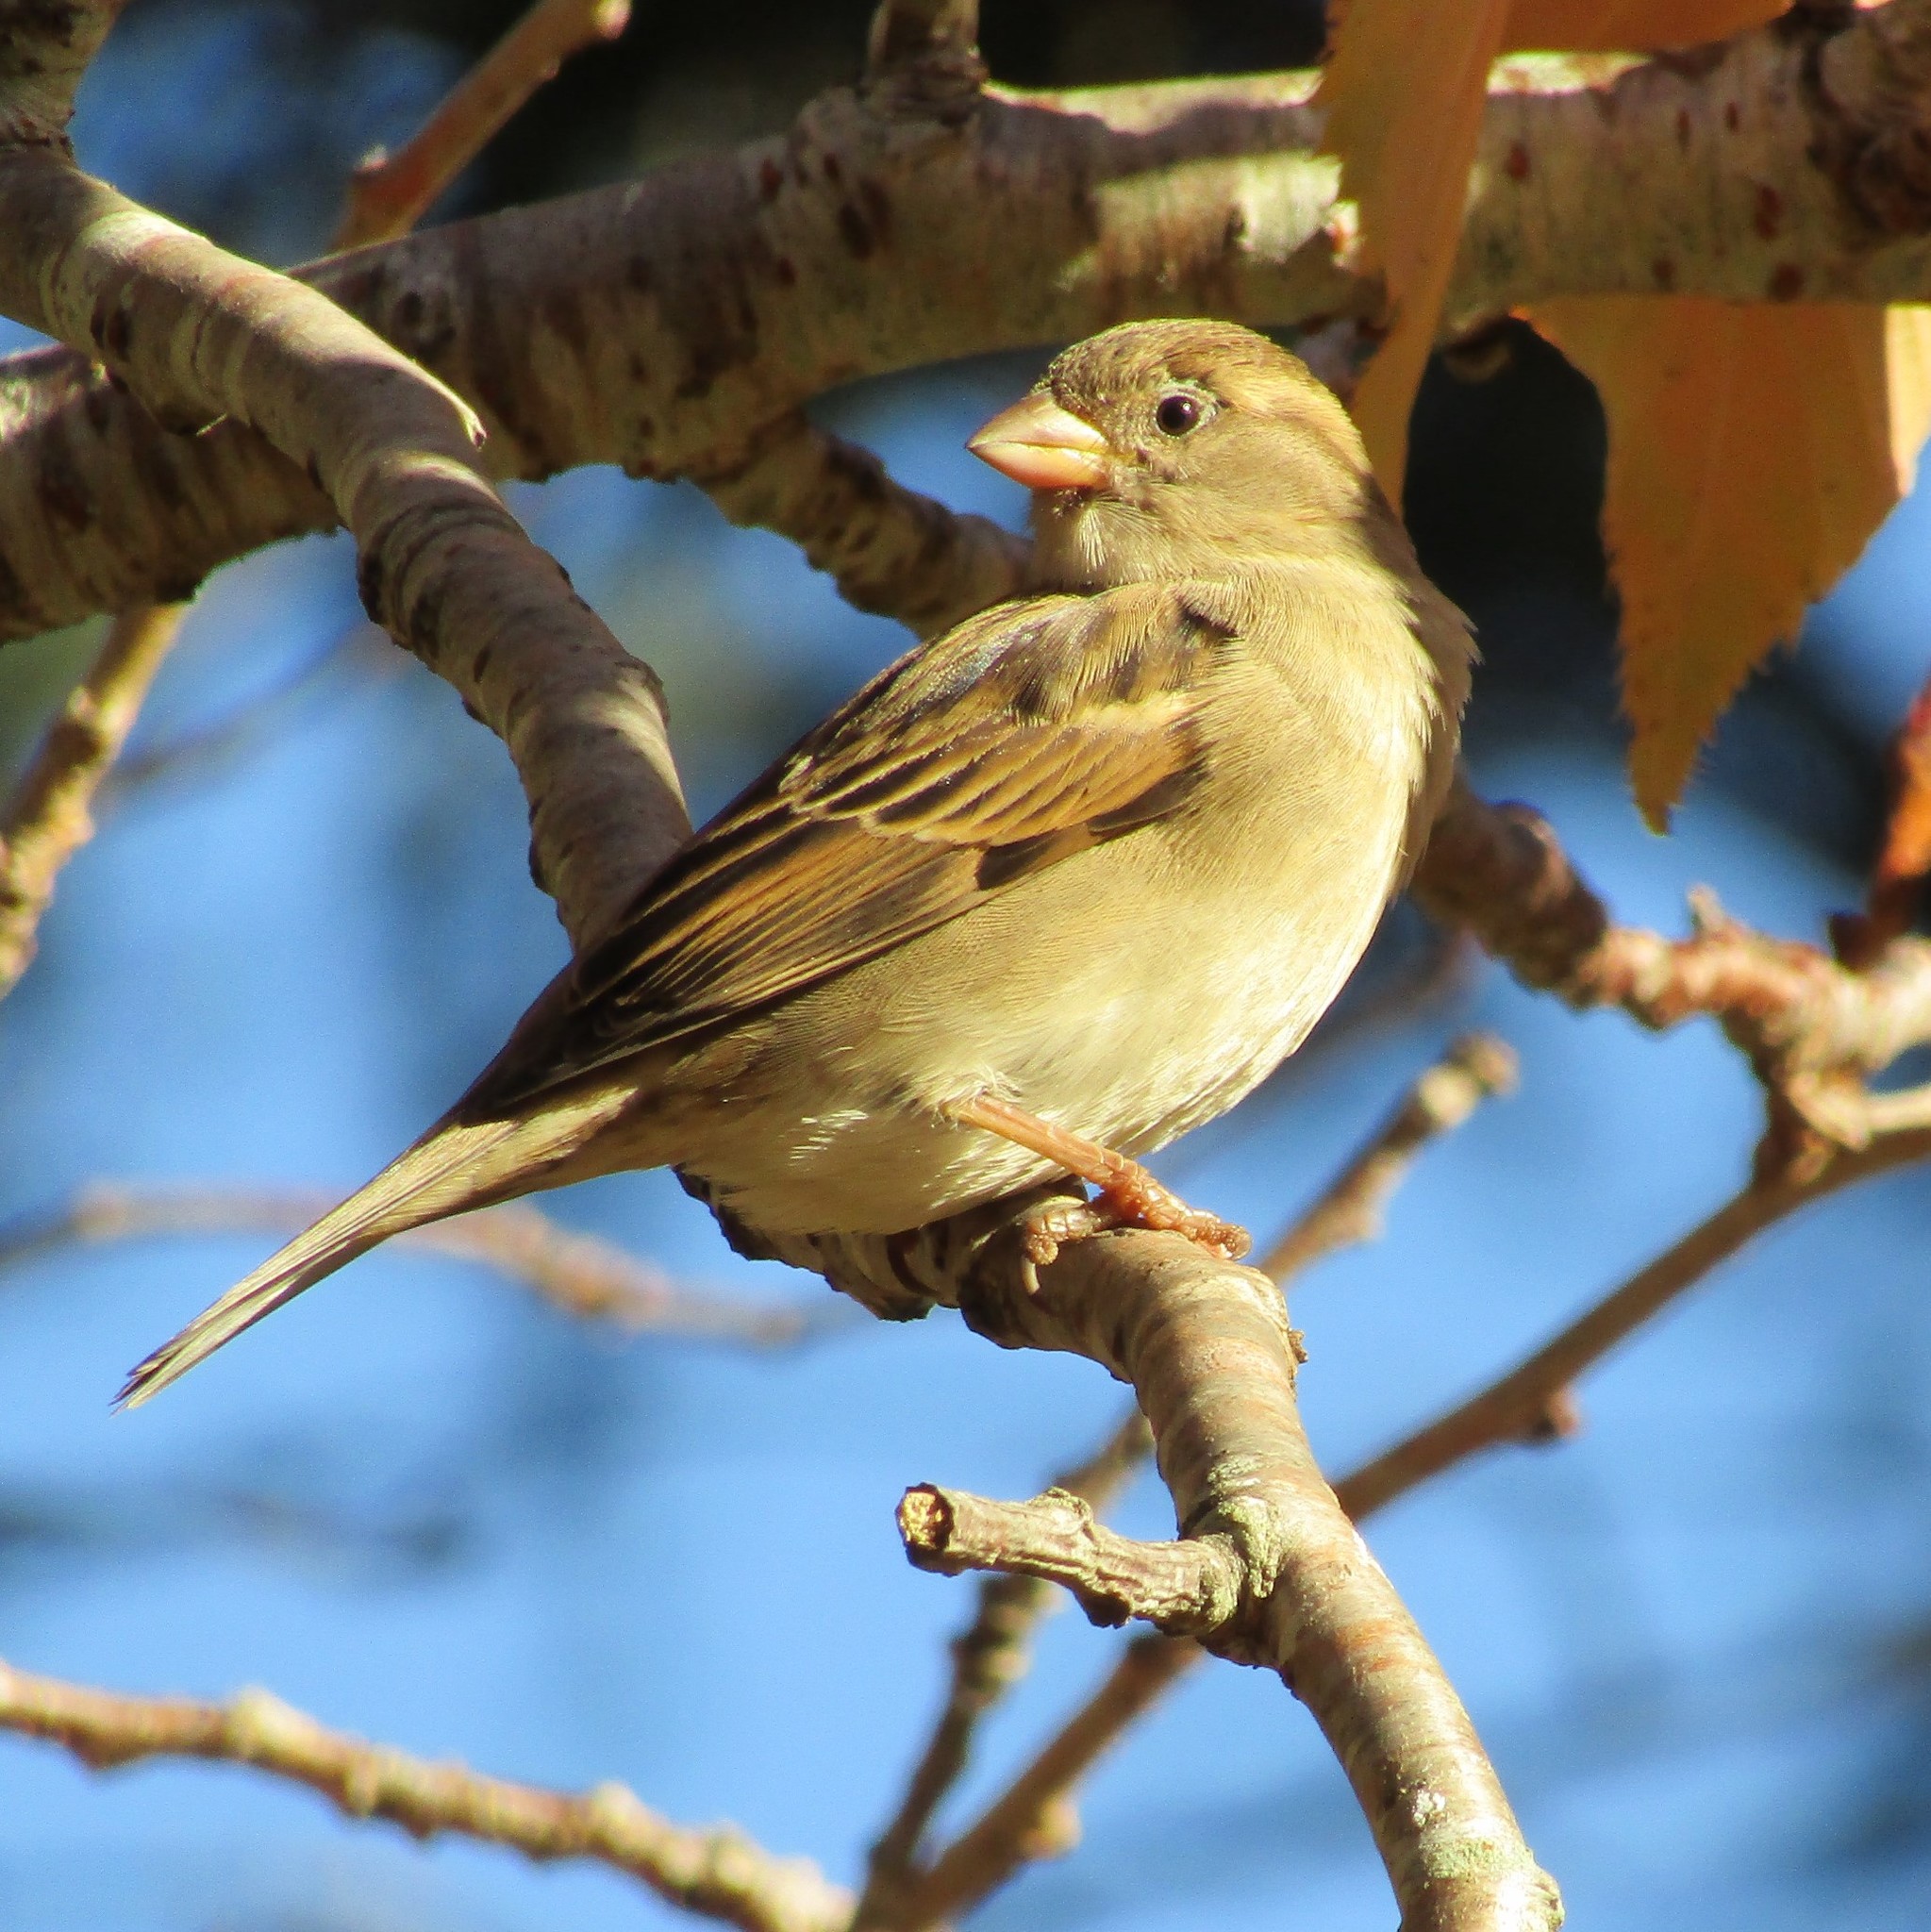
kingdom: Animalia
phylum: Chordata
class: Aves
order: Passeriformes
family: Passeridae
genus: Passer
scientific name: Passer domesticus
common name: House sparrow
